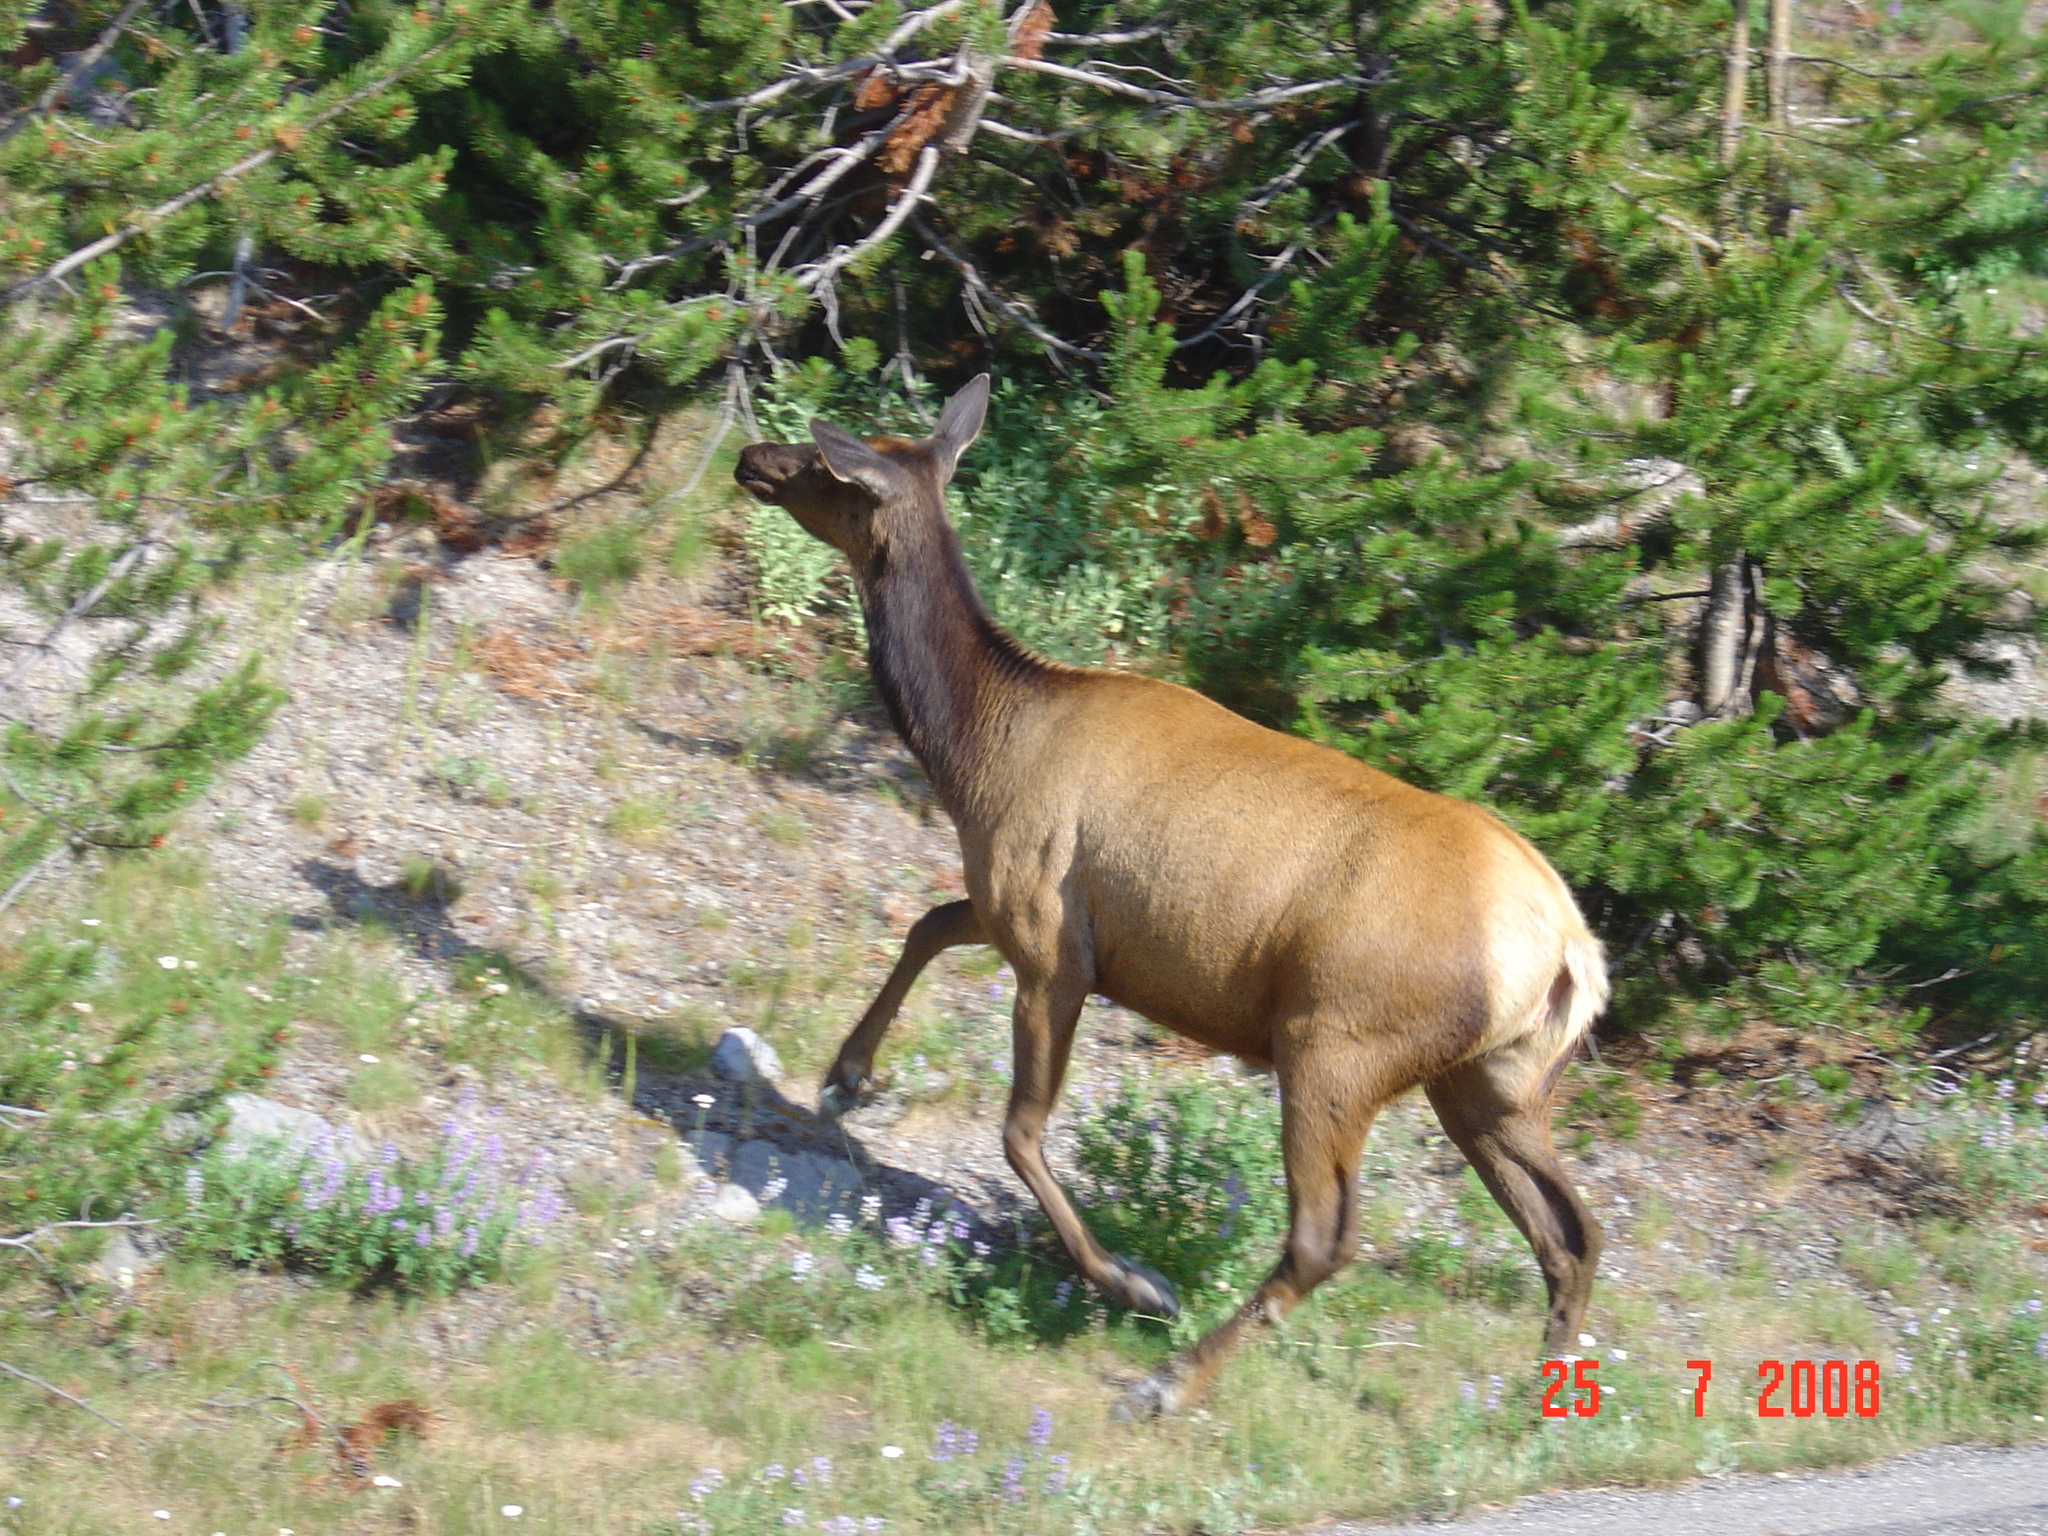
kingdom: Animalia
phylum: Chordata
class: Mammalia
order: Artiodactyla
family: Cervidae
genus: Cervus
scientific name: Cervus elaphus
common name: Red deer
